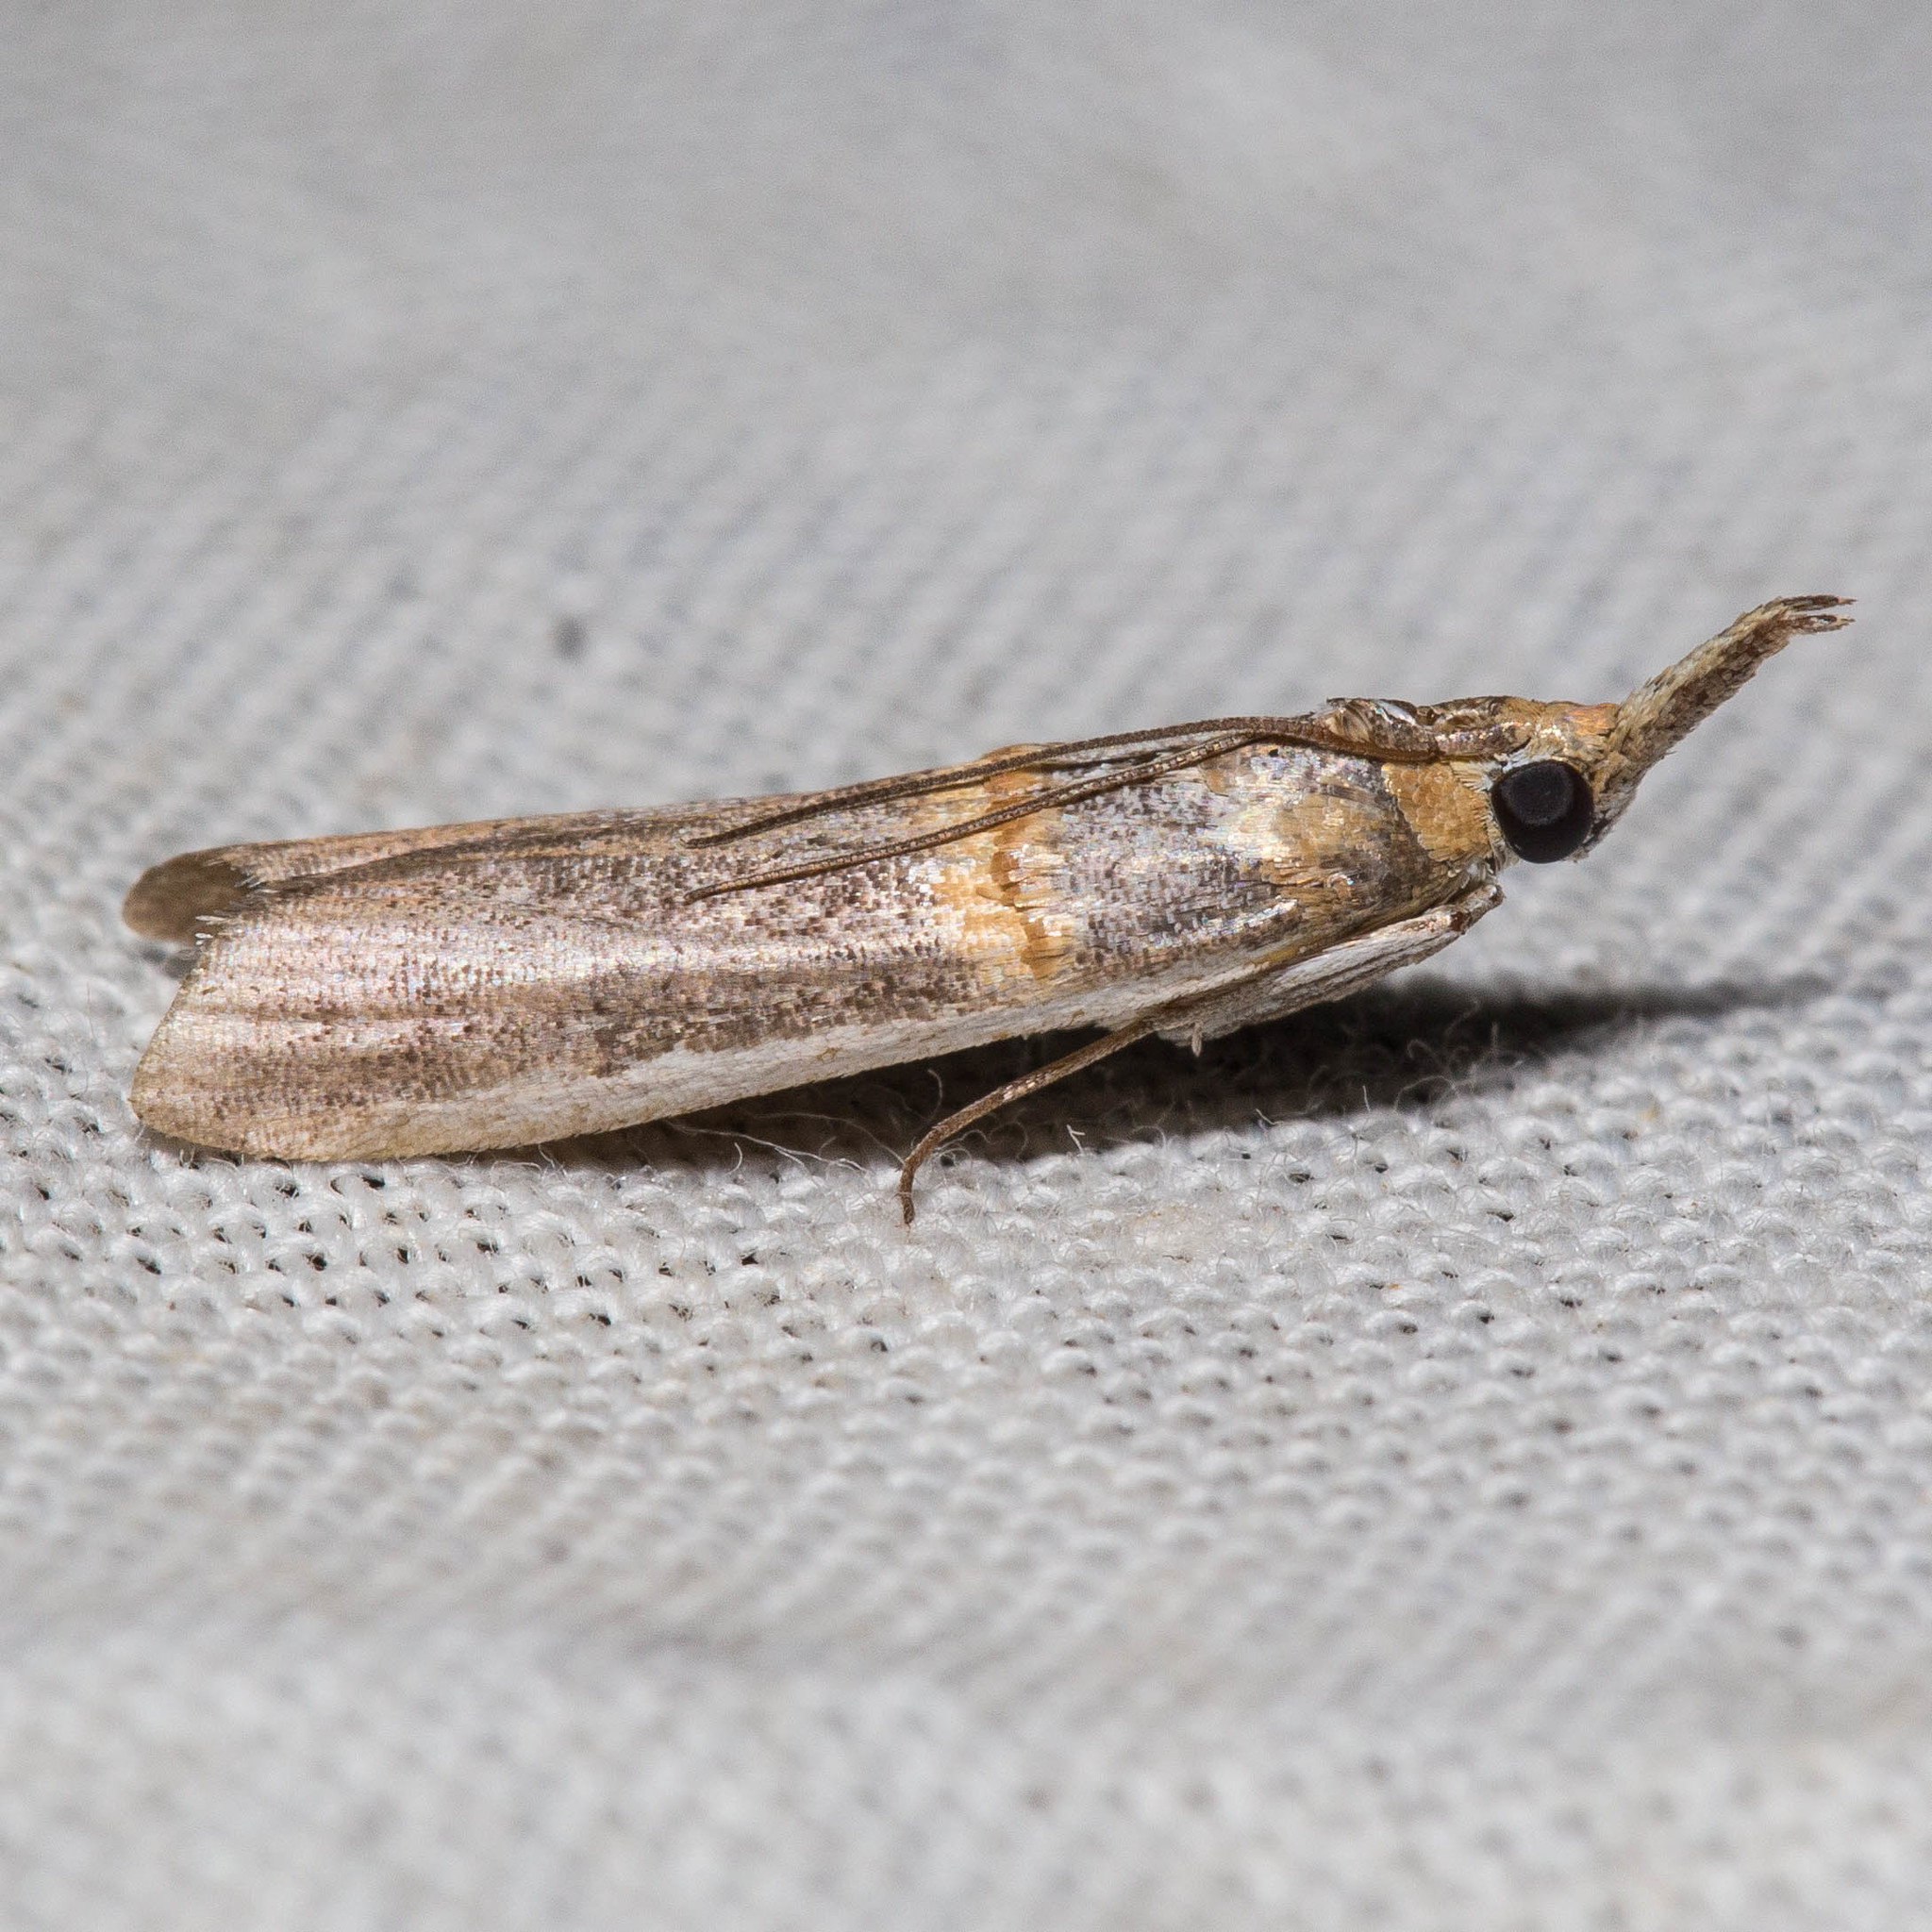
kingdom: Animalia
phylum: Arthropoda
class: Insecta
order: Lepidoptera
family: Pyralidae
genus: Etiella
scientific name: Etiella zinckenella
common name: Gold-banded etiella moth
